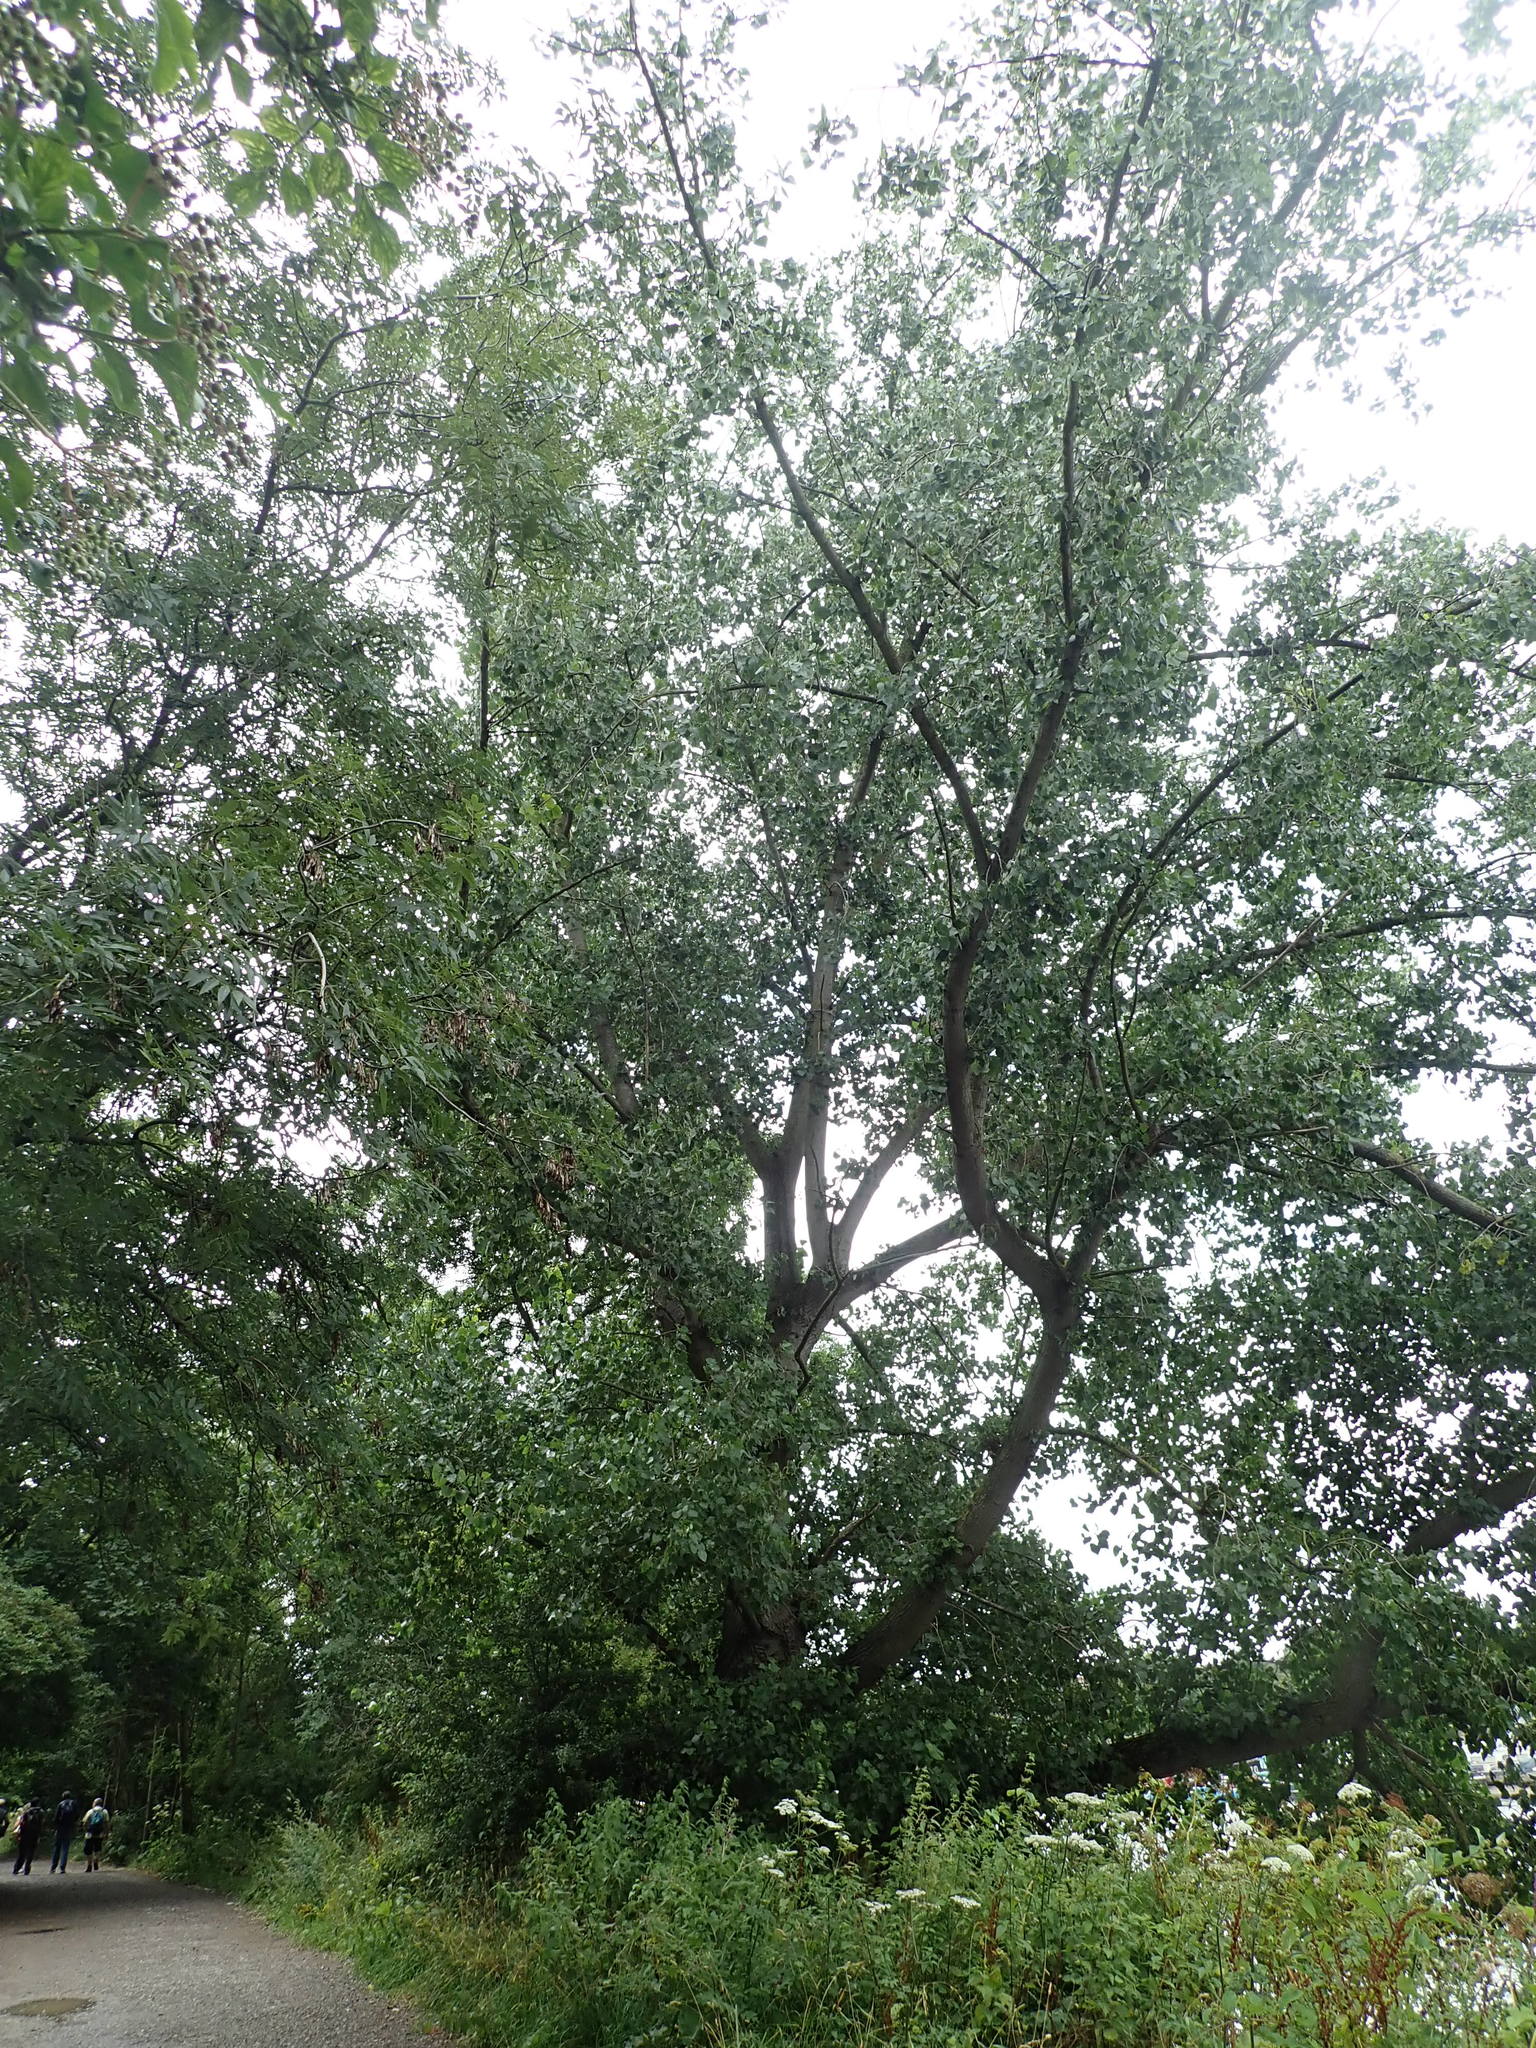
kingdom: Plantae
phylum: Tracheophyta
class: Magnoliopsida
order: Malpighiales
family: Salicaceae
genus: Populus
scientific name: Populus canadensis
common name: Carolina poplar
